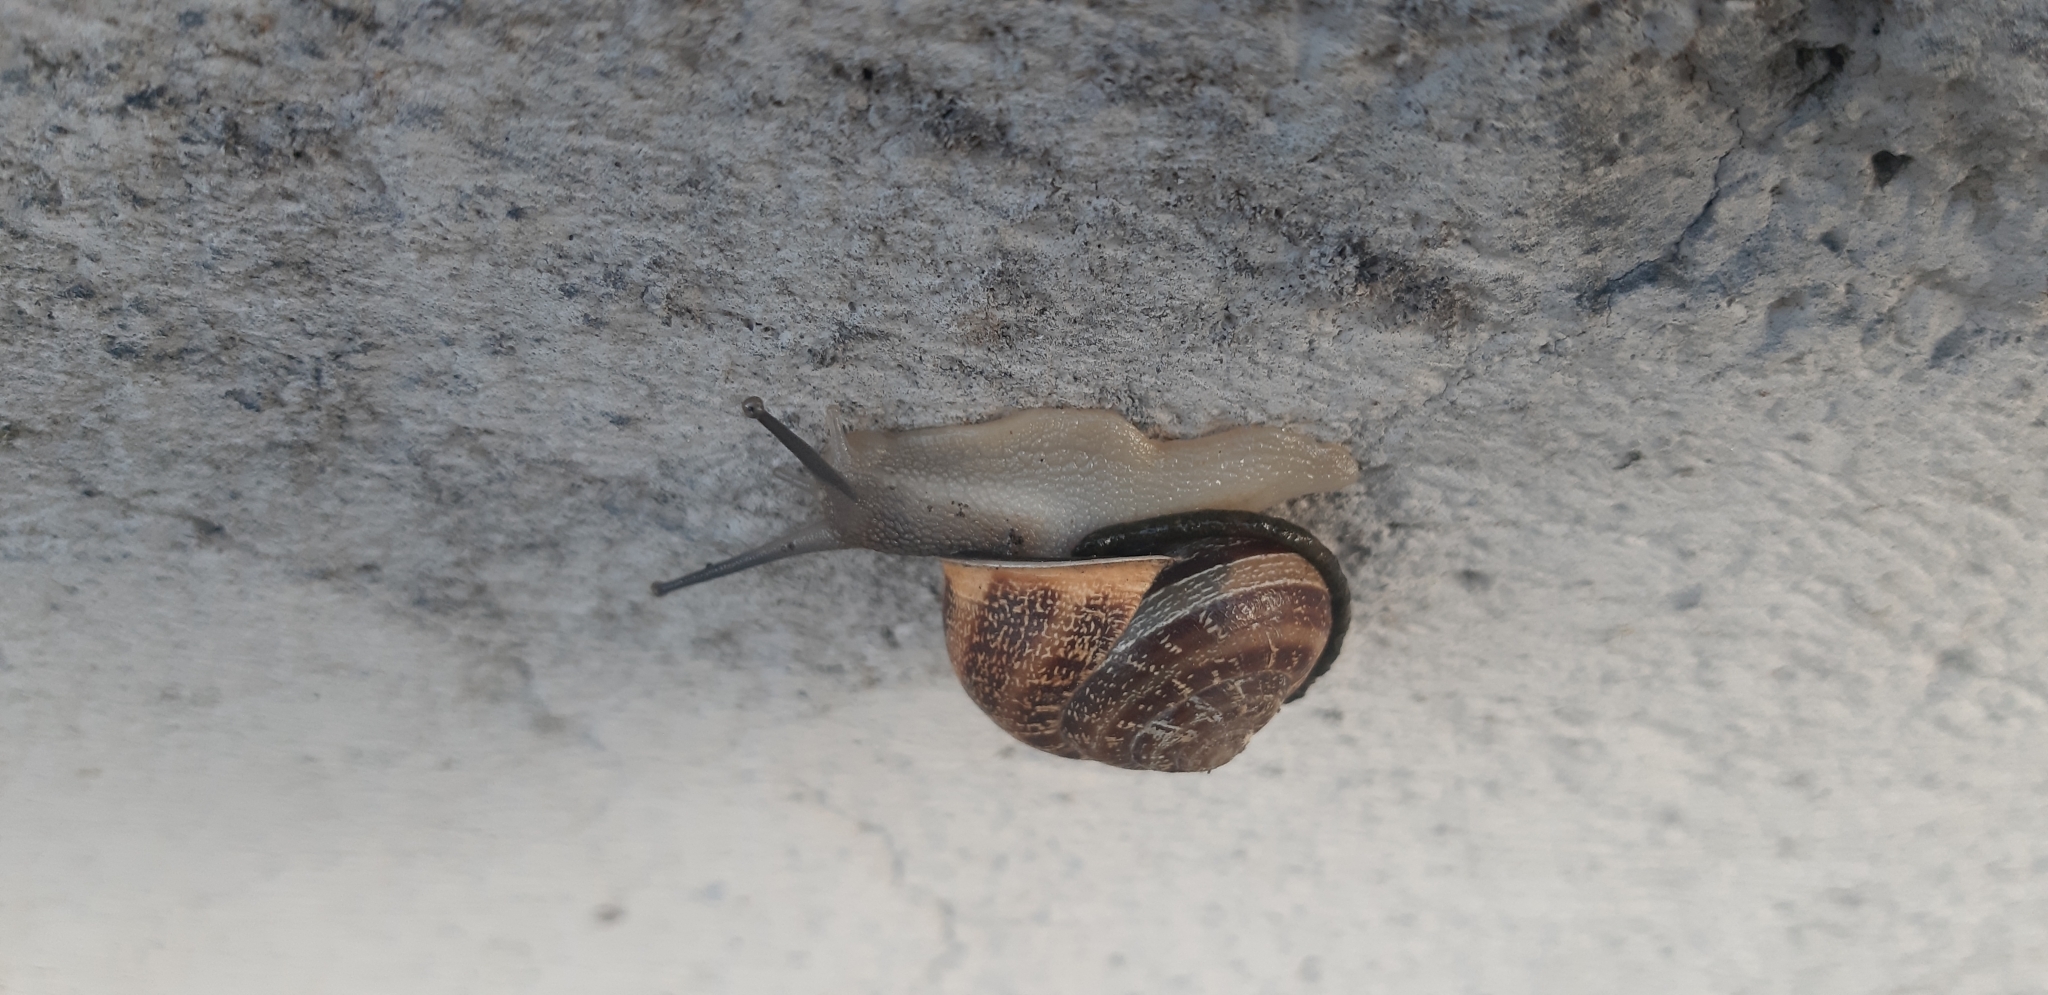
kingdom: Animalia
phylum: Mollusca
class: Gastropoda
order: Stylommatophora
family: Helicidae
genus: Eobania
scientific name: Eobania vermiculata
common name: Chocolateband snail
